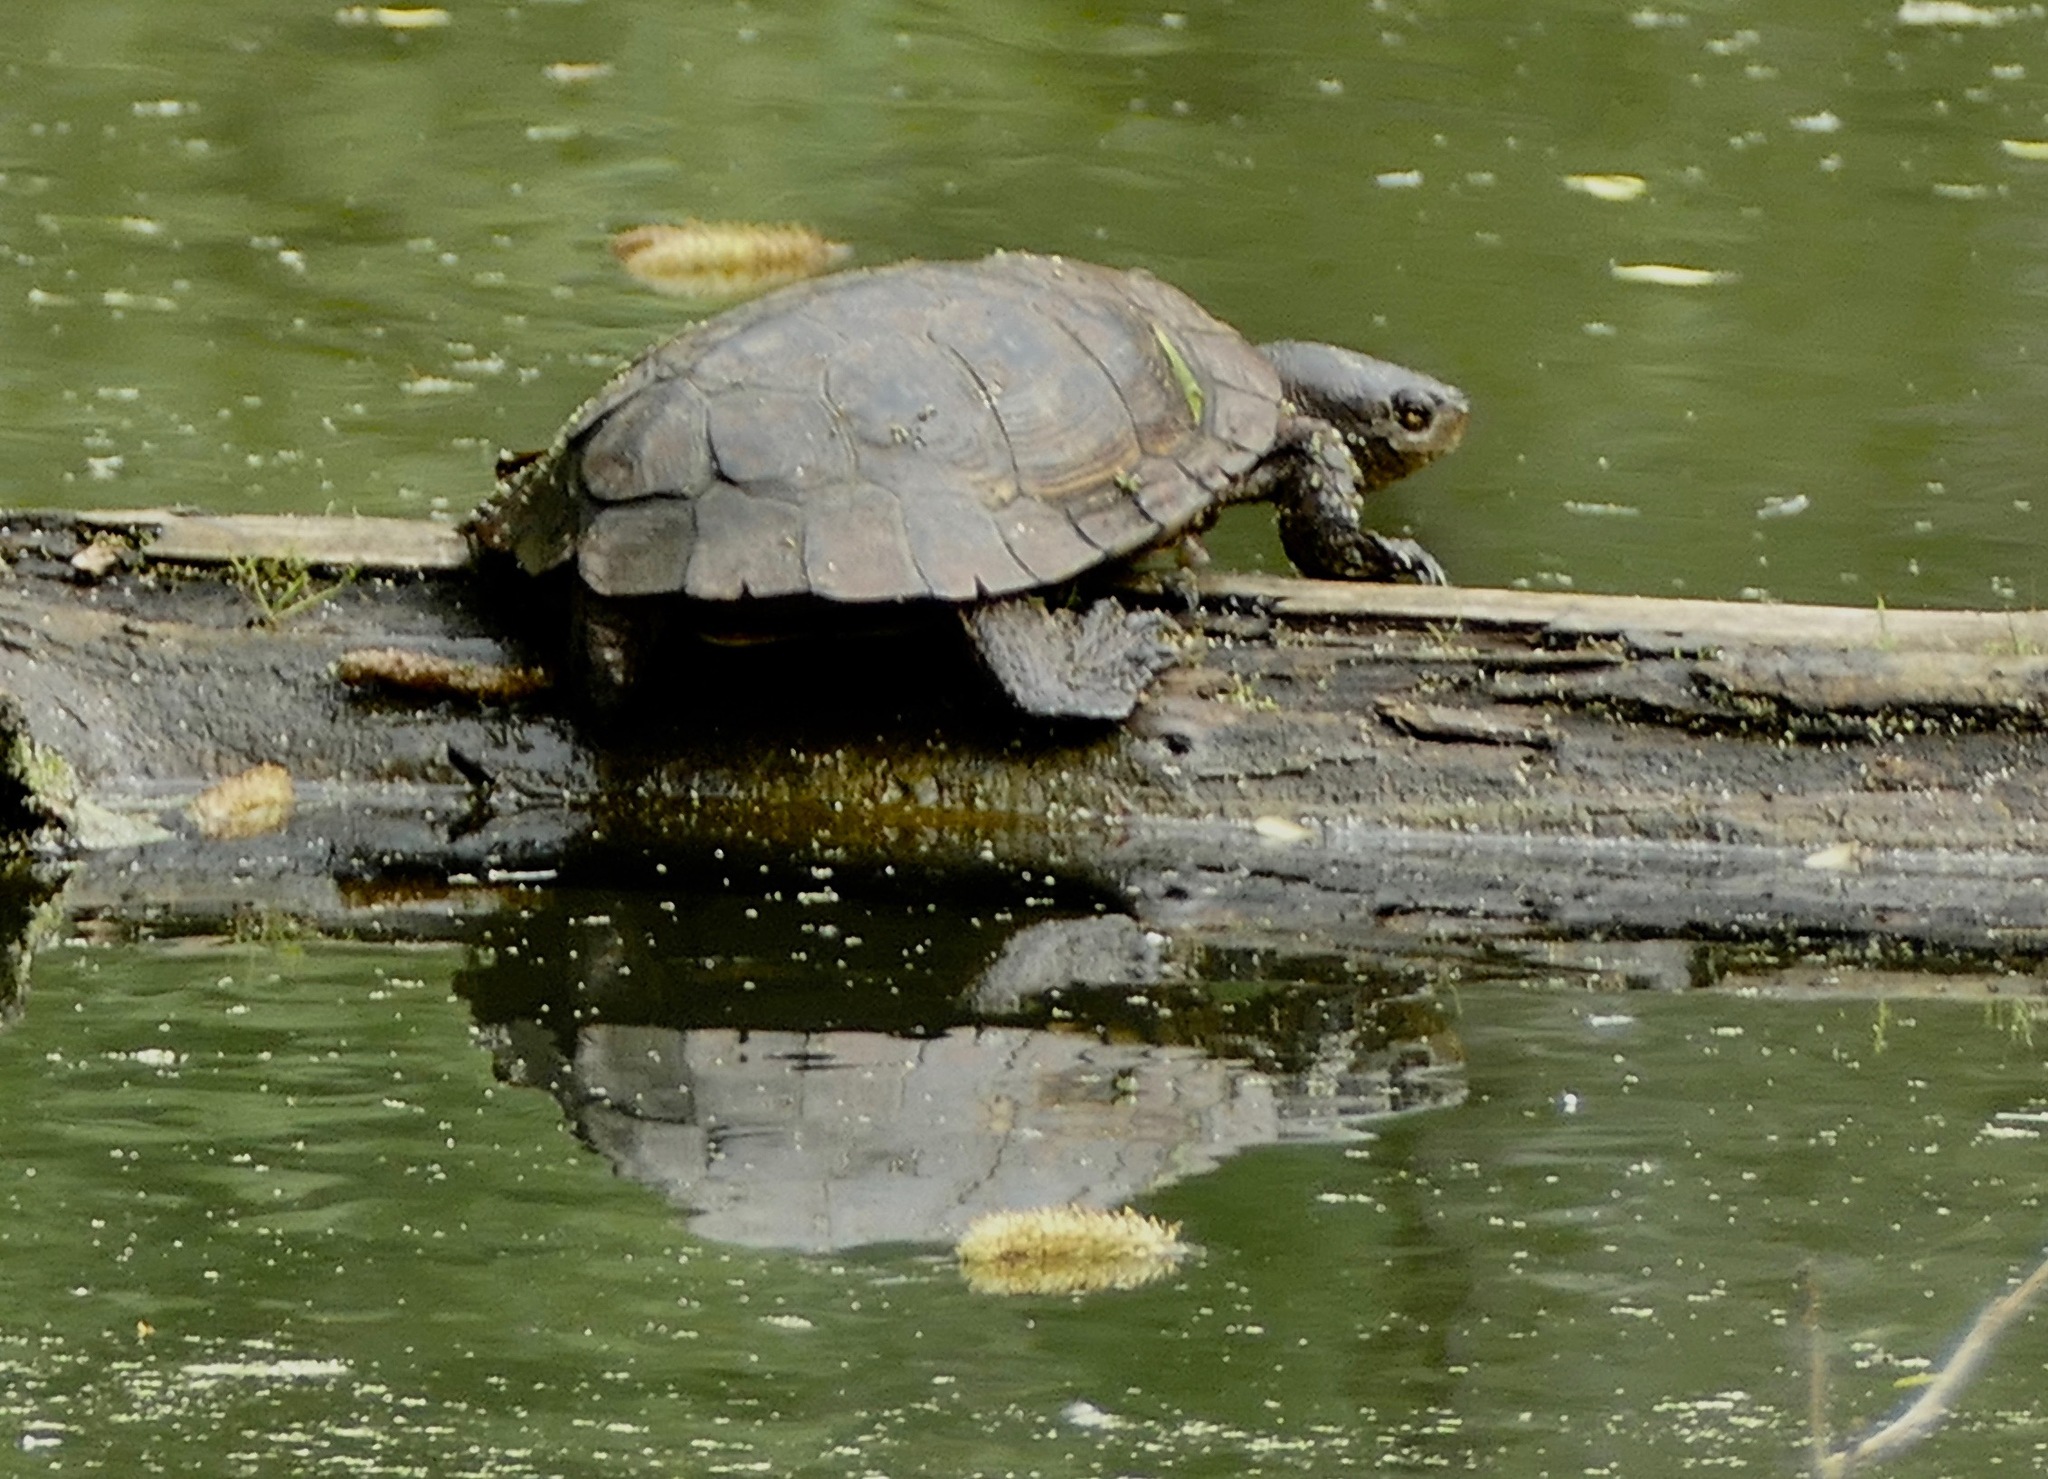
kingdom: Animalia
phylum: Chordata
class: Testudines
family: Emydidae
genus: Actinemys
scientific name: Actinemys marmorata
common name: Western pond turtle
